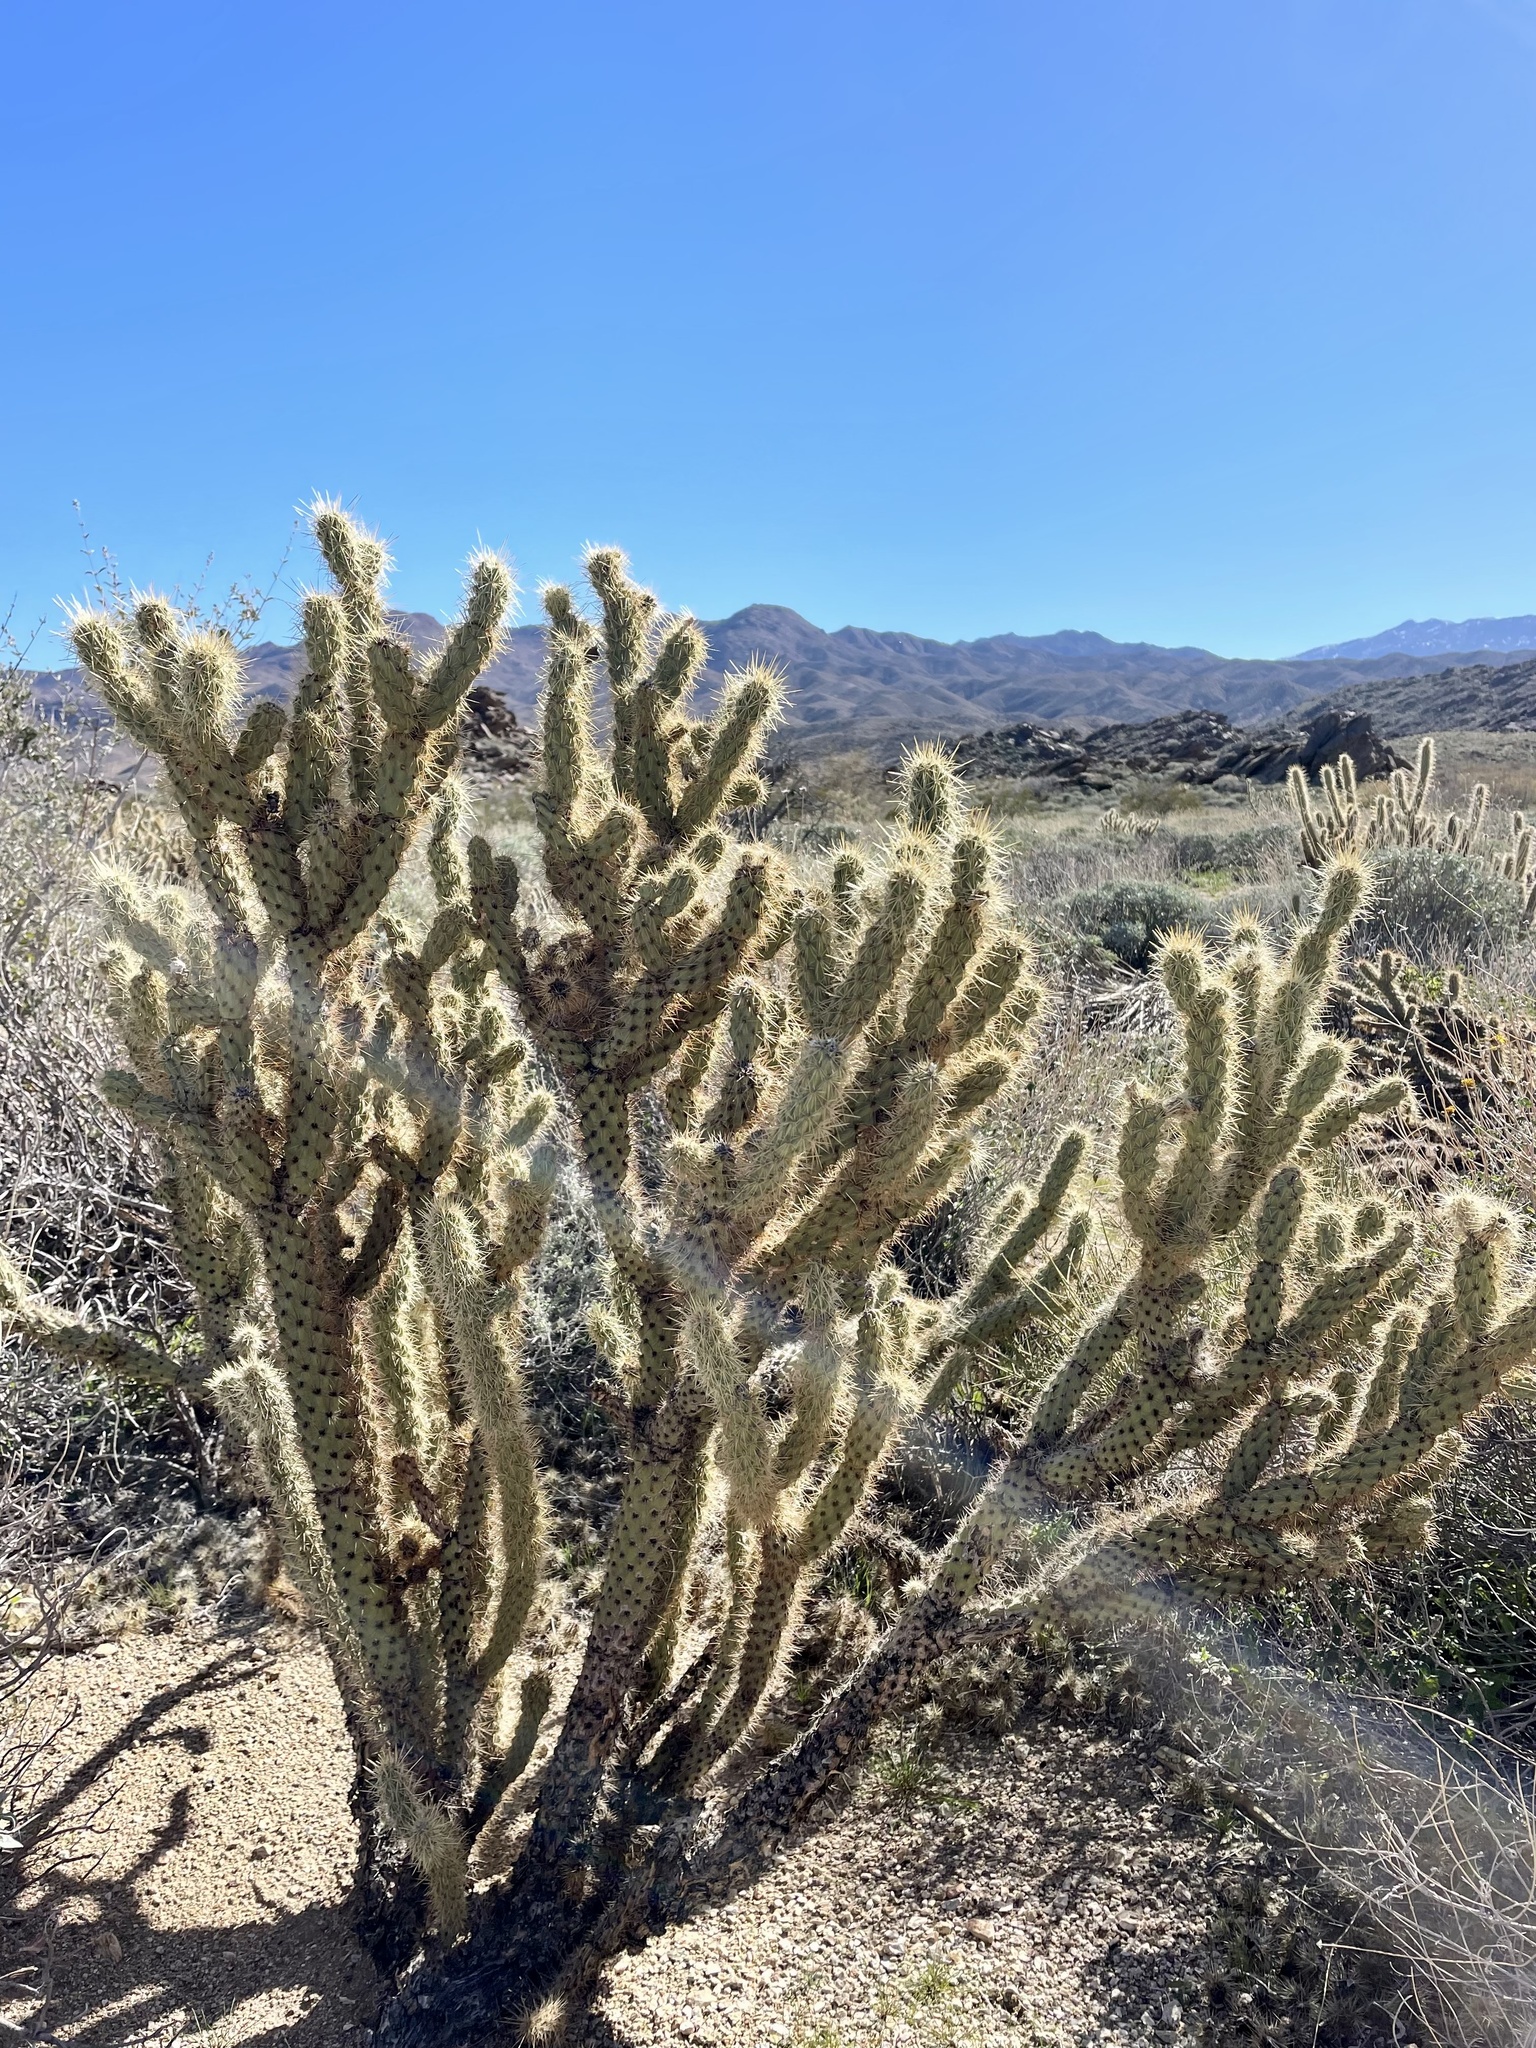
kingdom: Plantae
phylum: Tracheophyta
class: Magnoliopsida
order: Caryophyllales
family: Cactaceae
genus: Cylindropuntia
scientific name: Cylindropuntia ganderi
